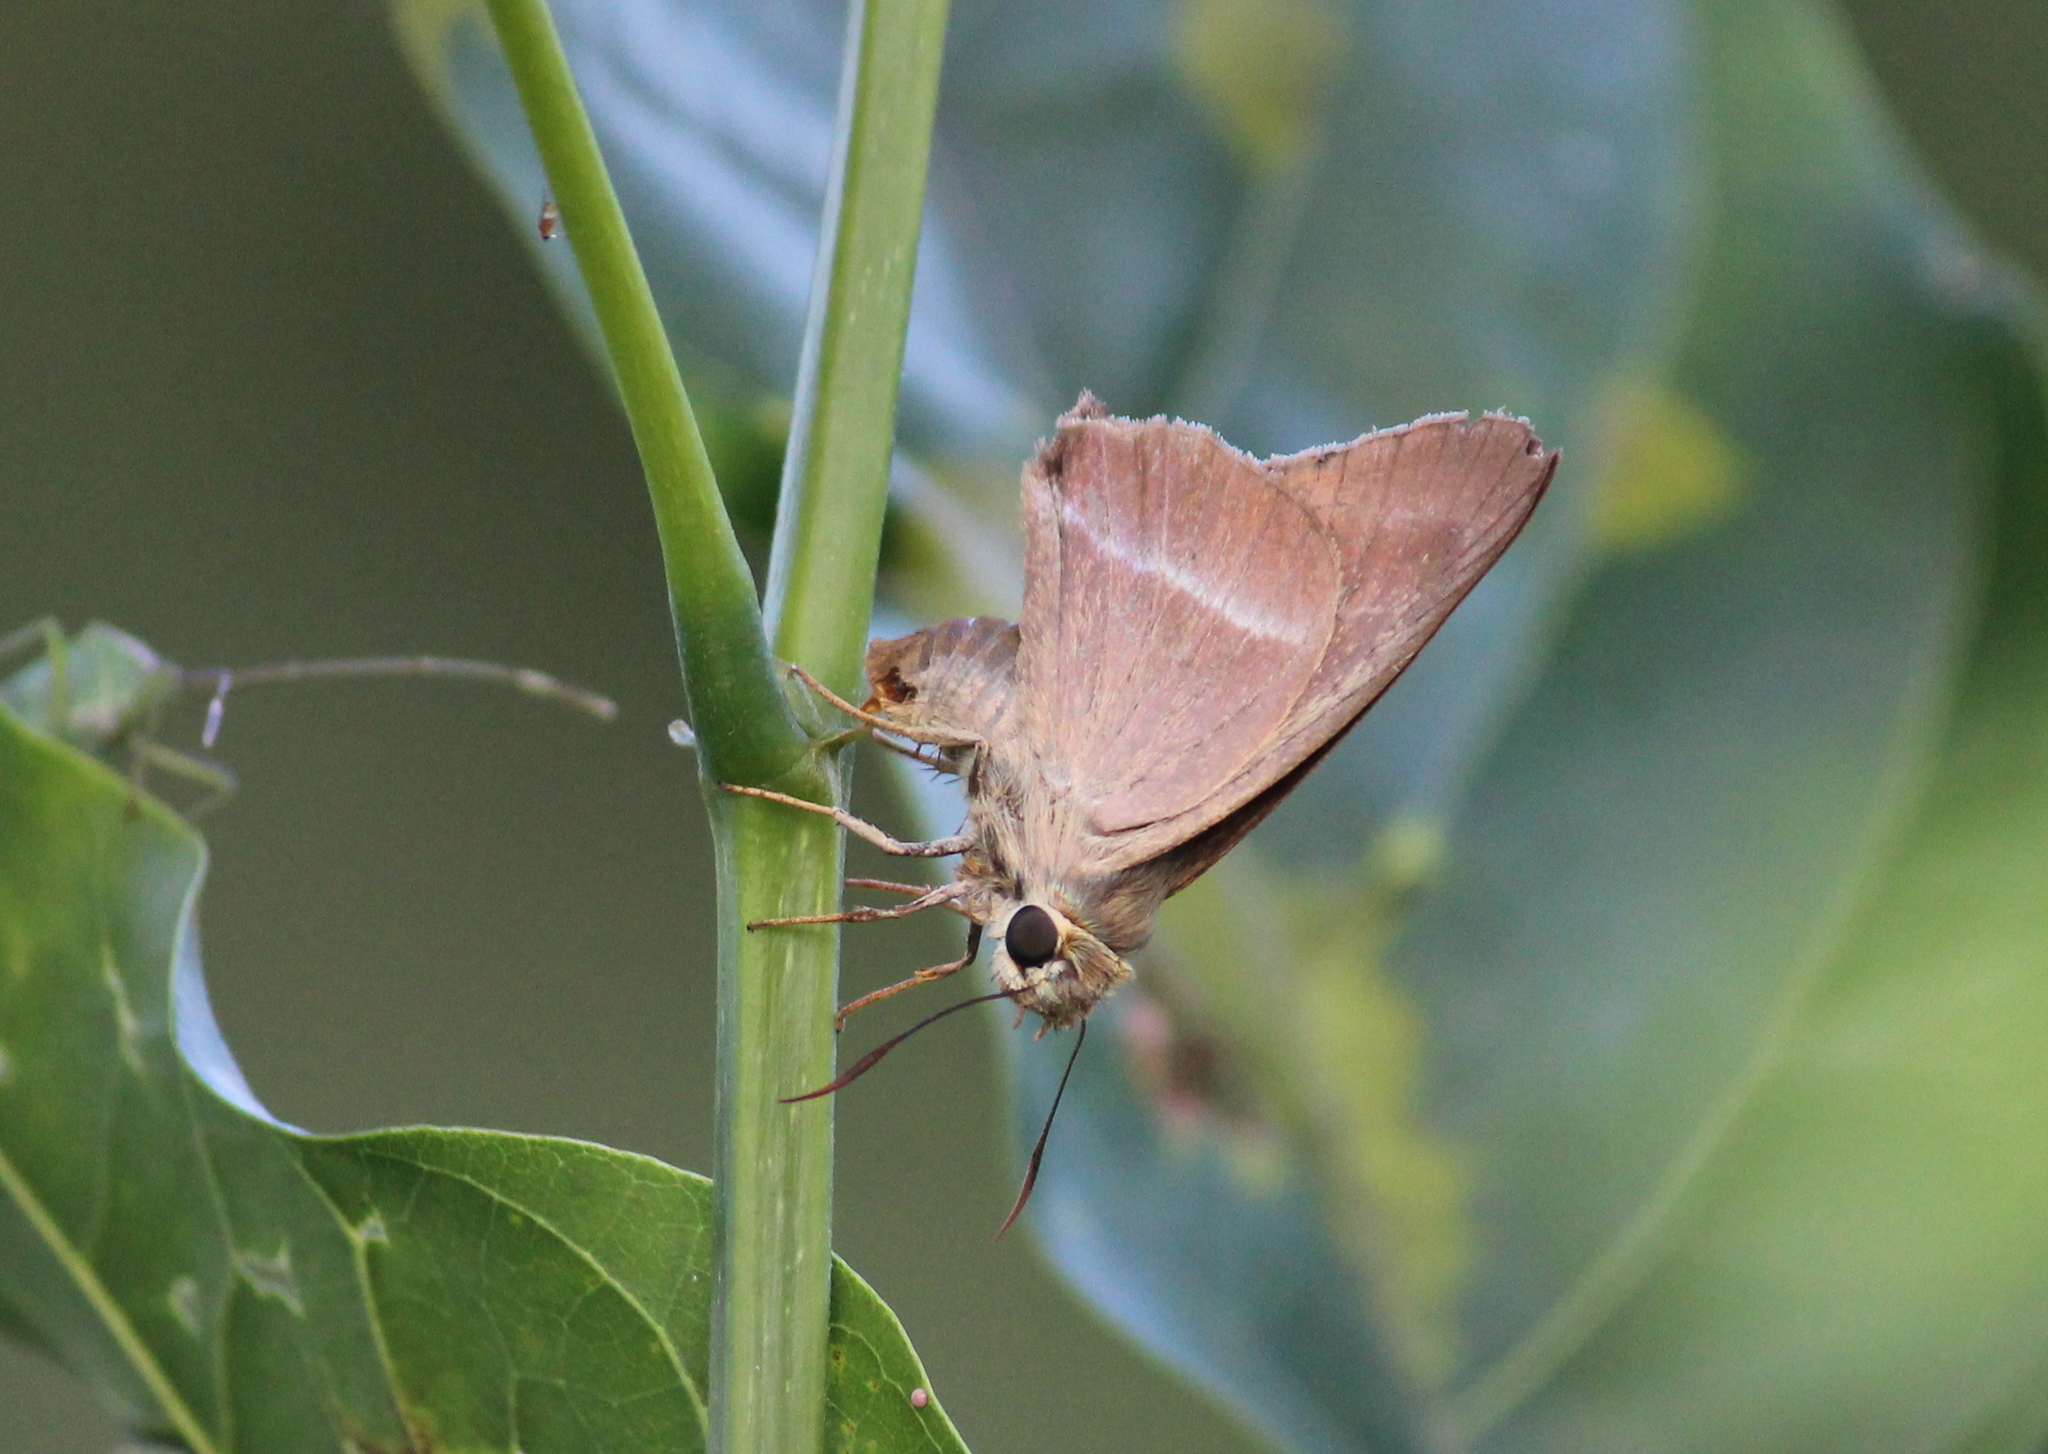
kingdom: Animalia
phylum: Arthropoda
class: Insecta
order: Lepidoptera
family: Hesperiidae
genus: Hasora
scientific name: Hasora chromus
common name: Common banded awl
